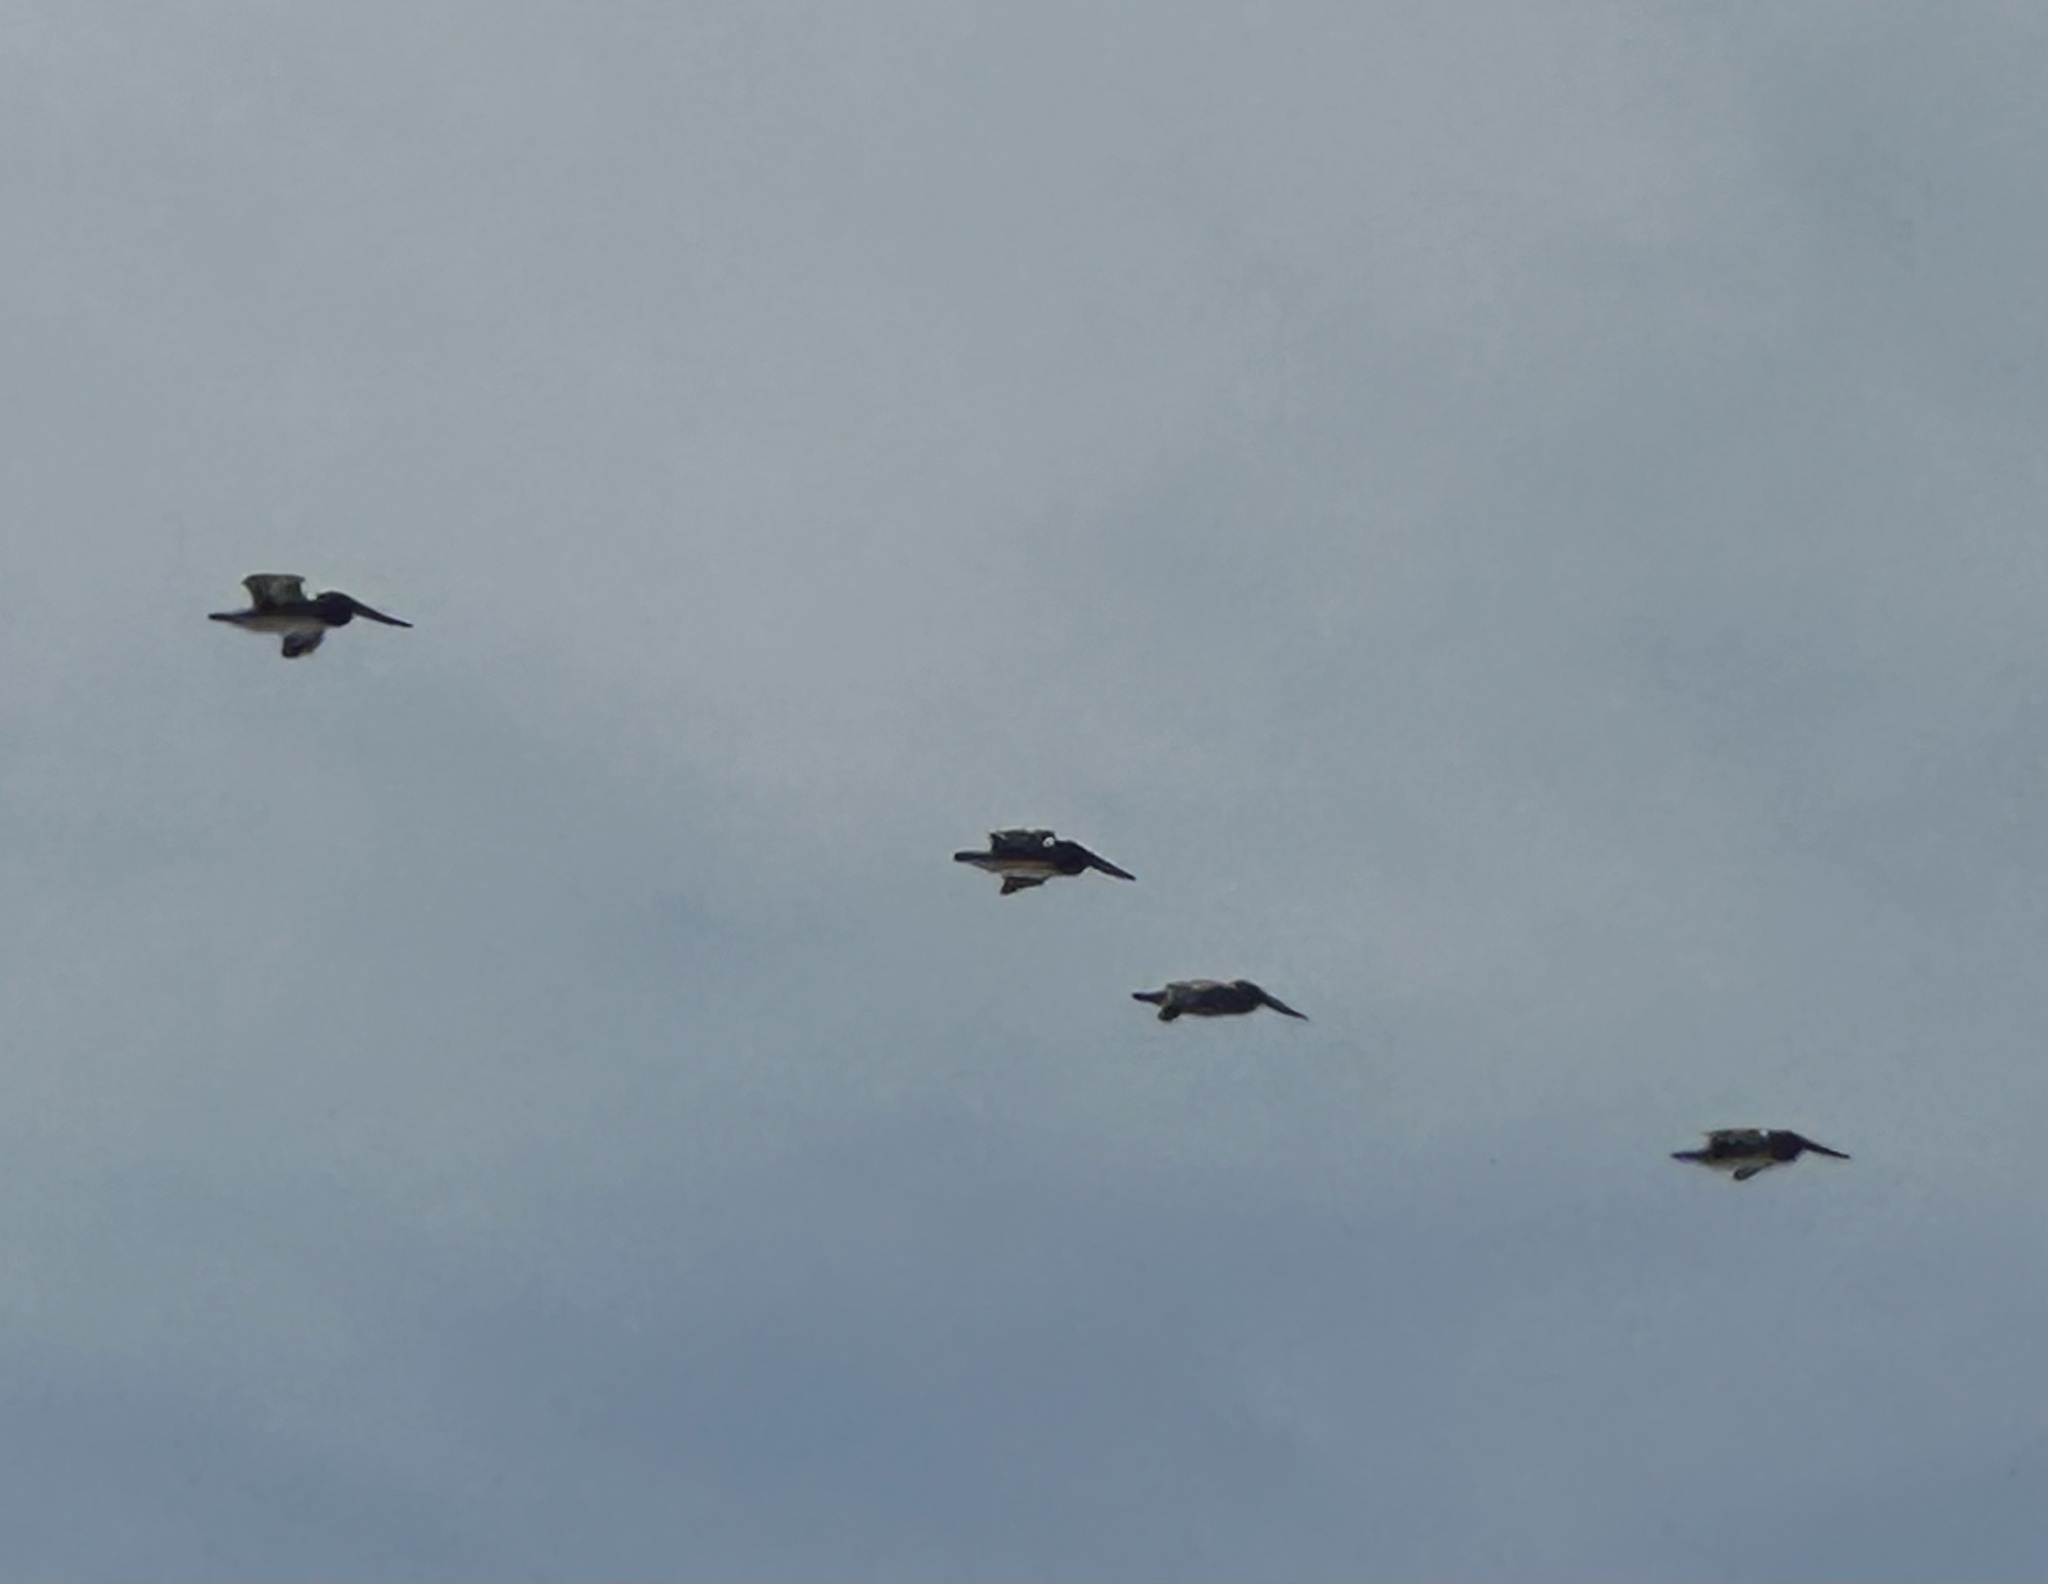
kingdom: Animalia
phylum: Chordata
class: Aves
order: Pelecaniformes
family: Pelecanidae
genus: Pelecanus
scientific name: Pelecanus occidentalis
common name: Brown pelican
